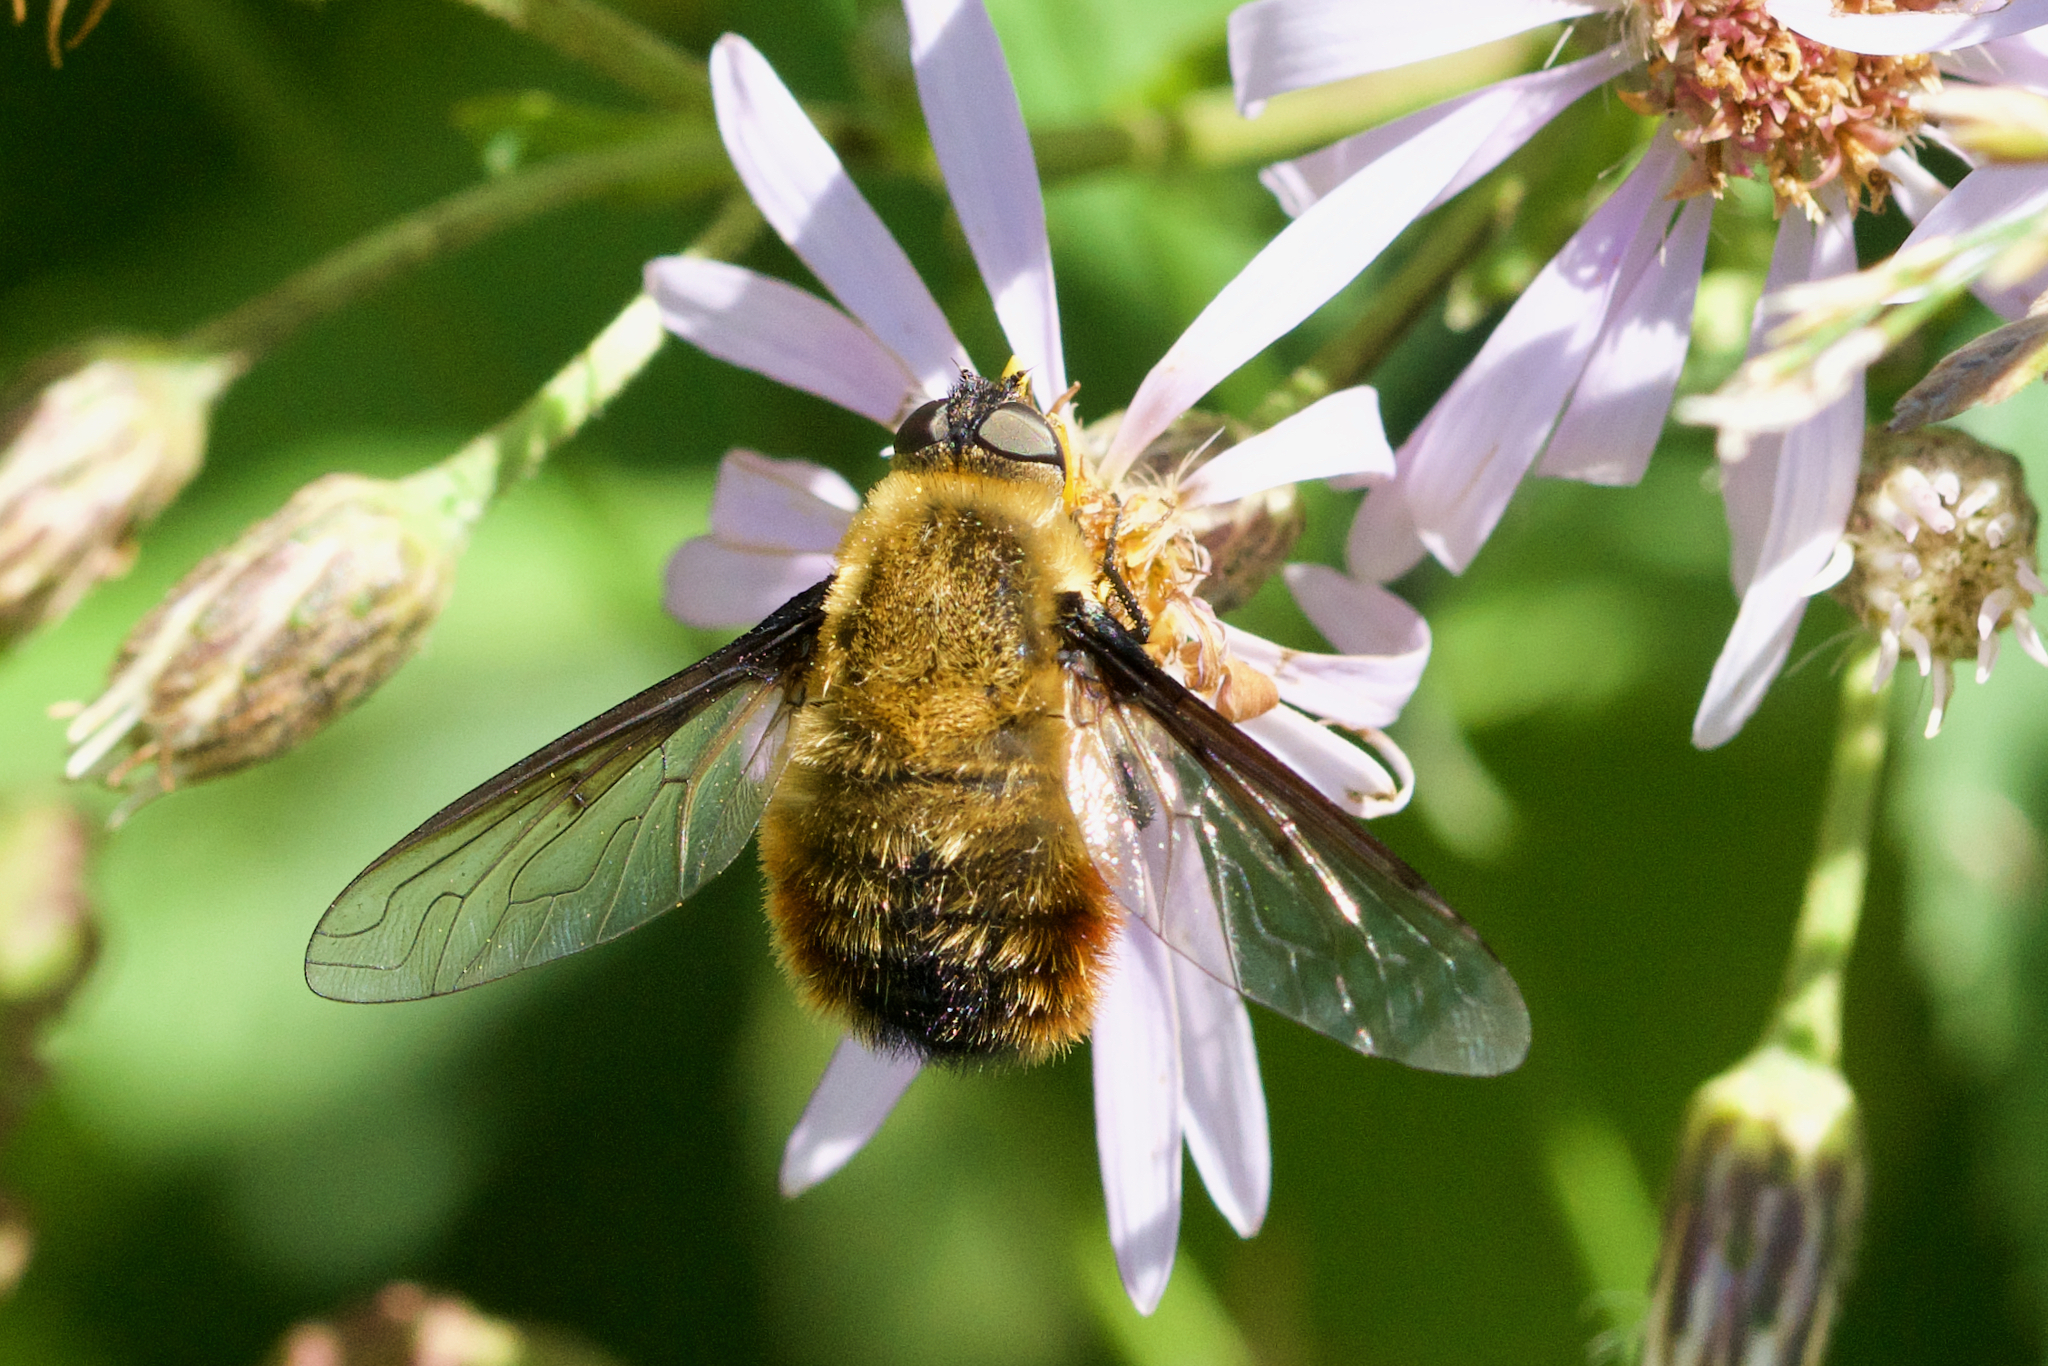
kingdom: Animalia
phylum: Arthropoda
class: Insecta
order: Diptera
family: Bombyliidae
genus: Villa
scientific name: Villa fulviana
